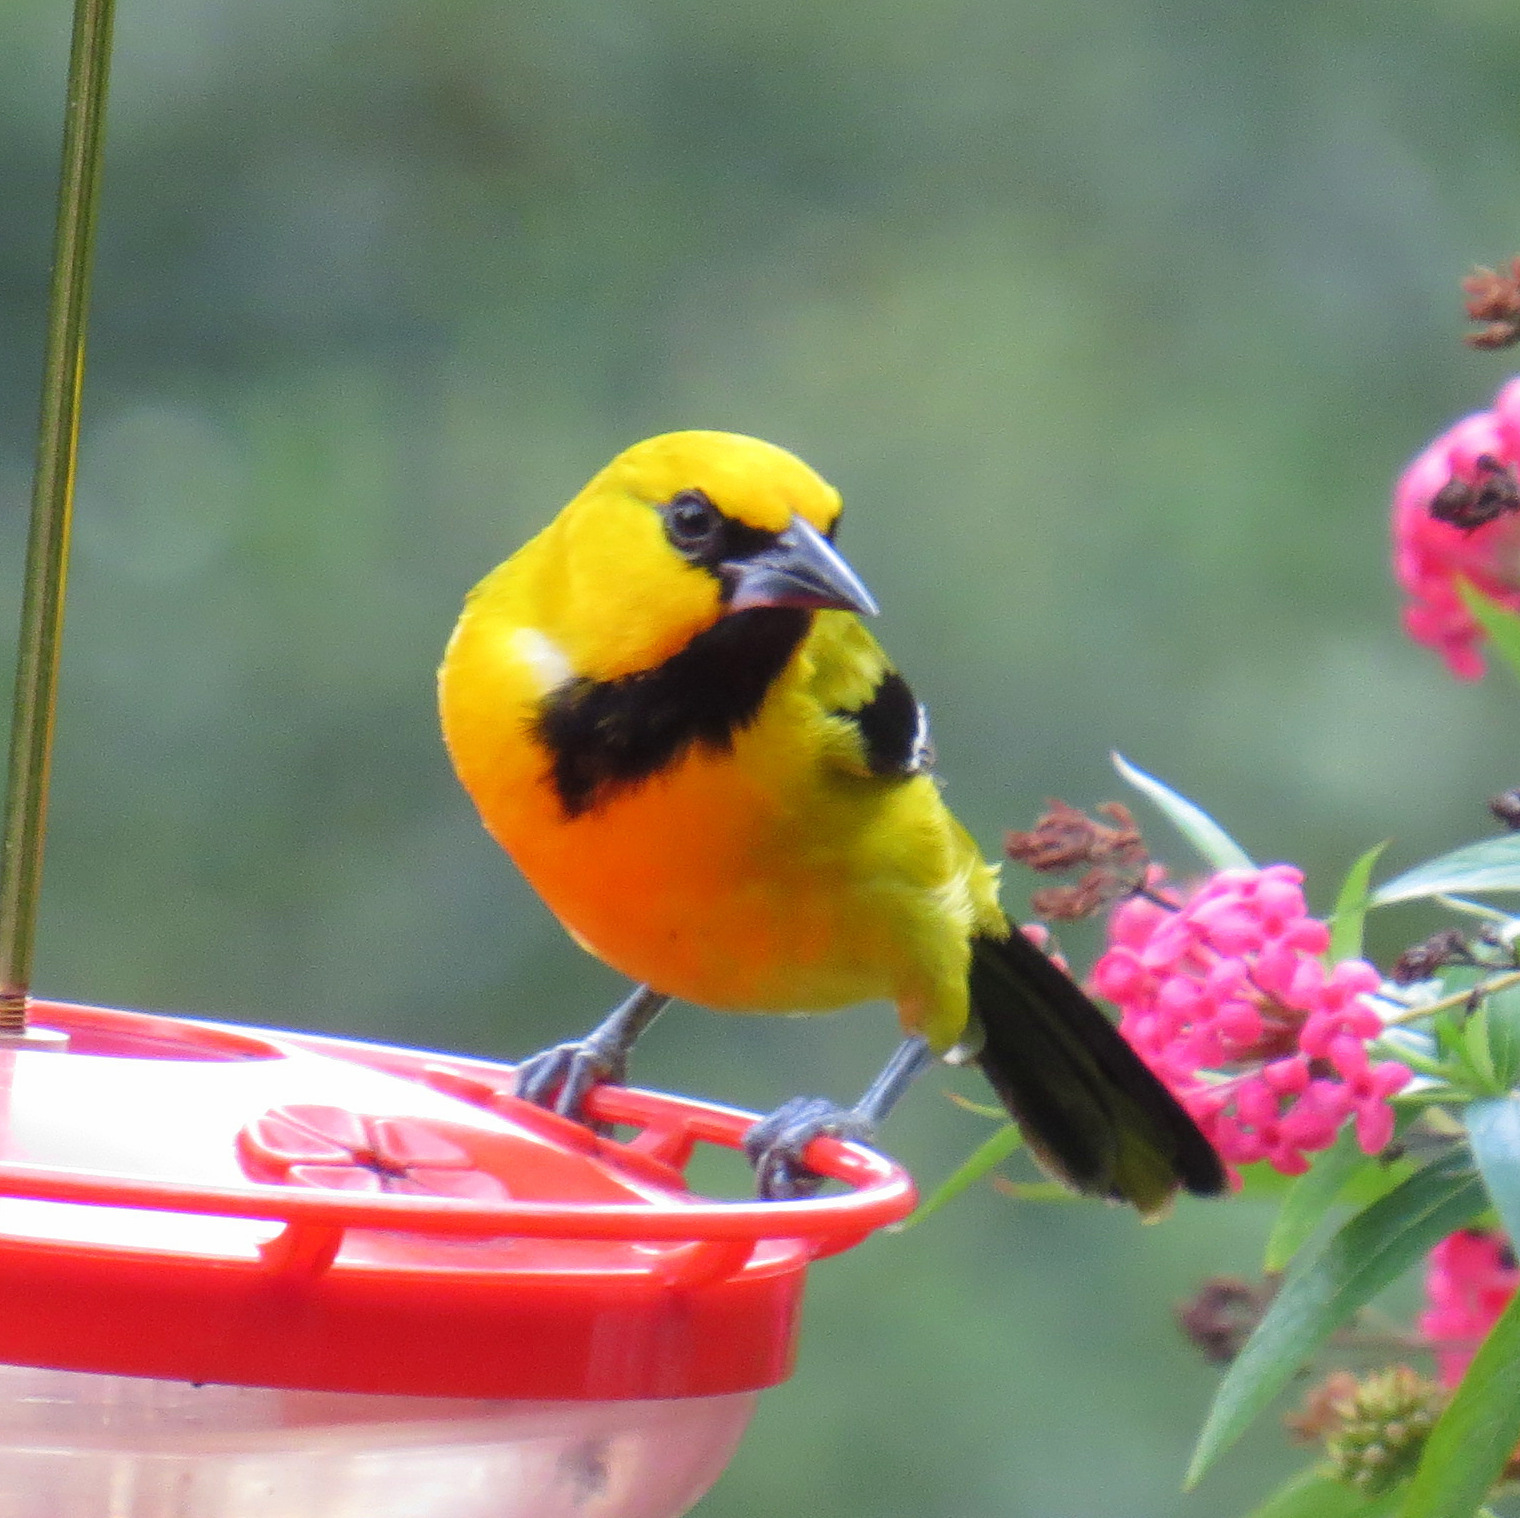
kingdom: Animalia
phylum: Chordata
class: Aves
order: Passeriformes
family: Icteridae
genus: Icterus
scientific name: Icterus nigrogularis
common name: Yellow oriole
